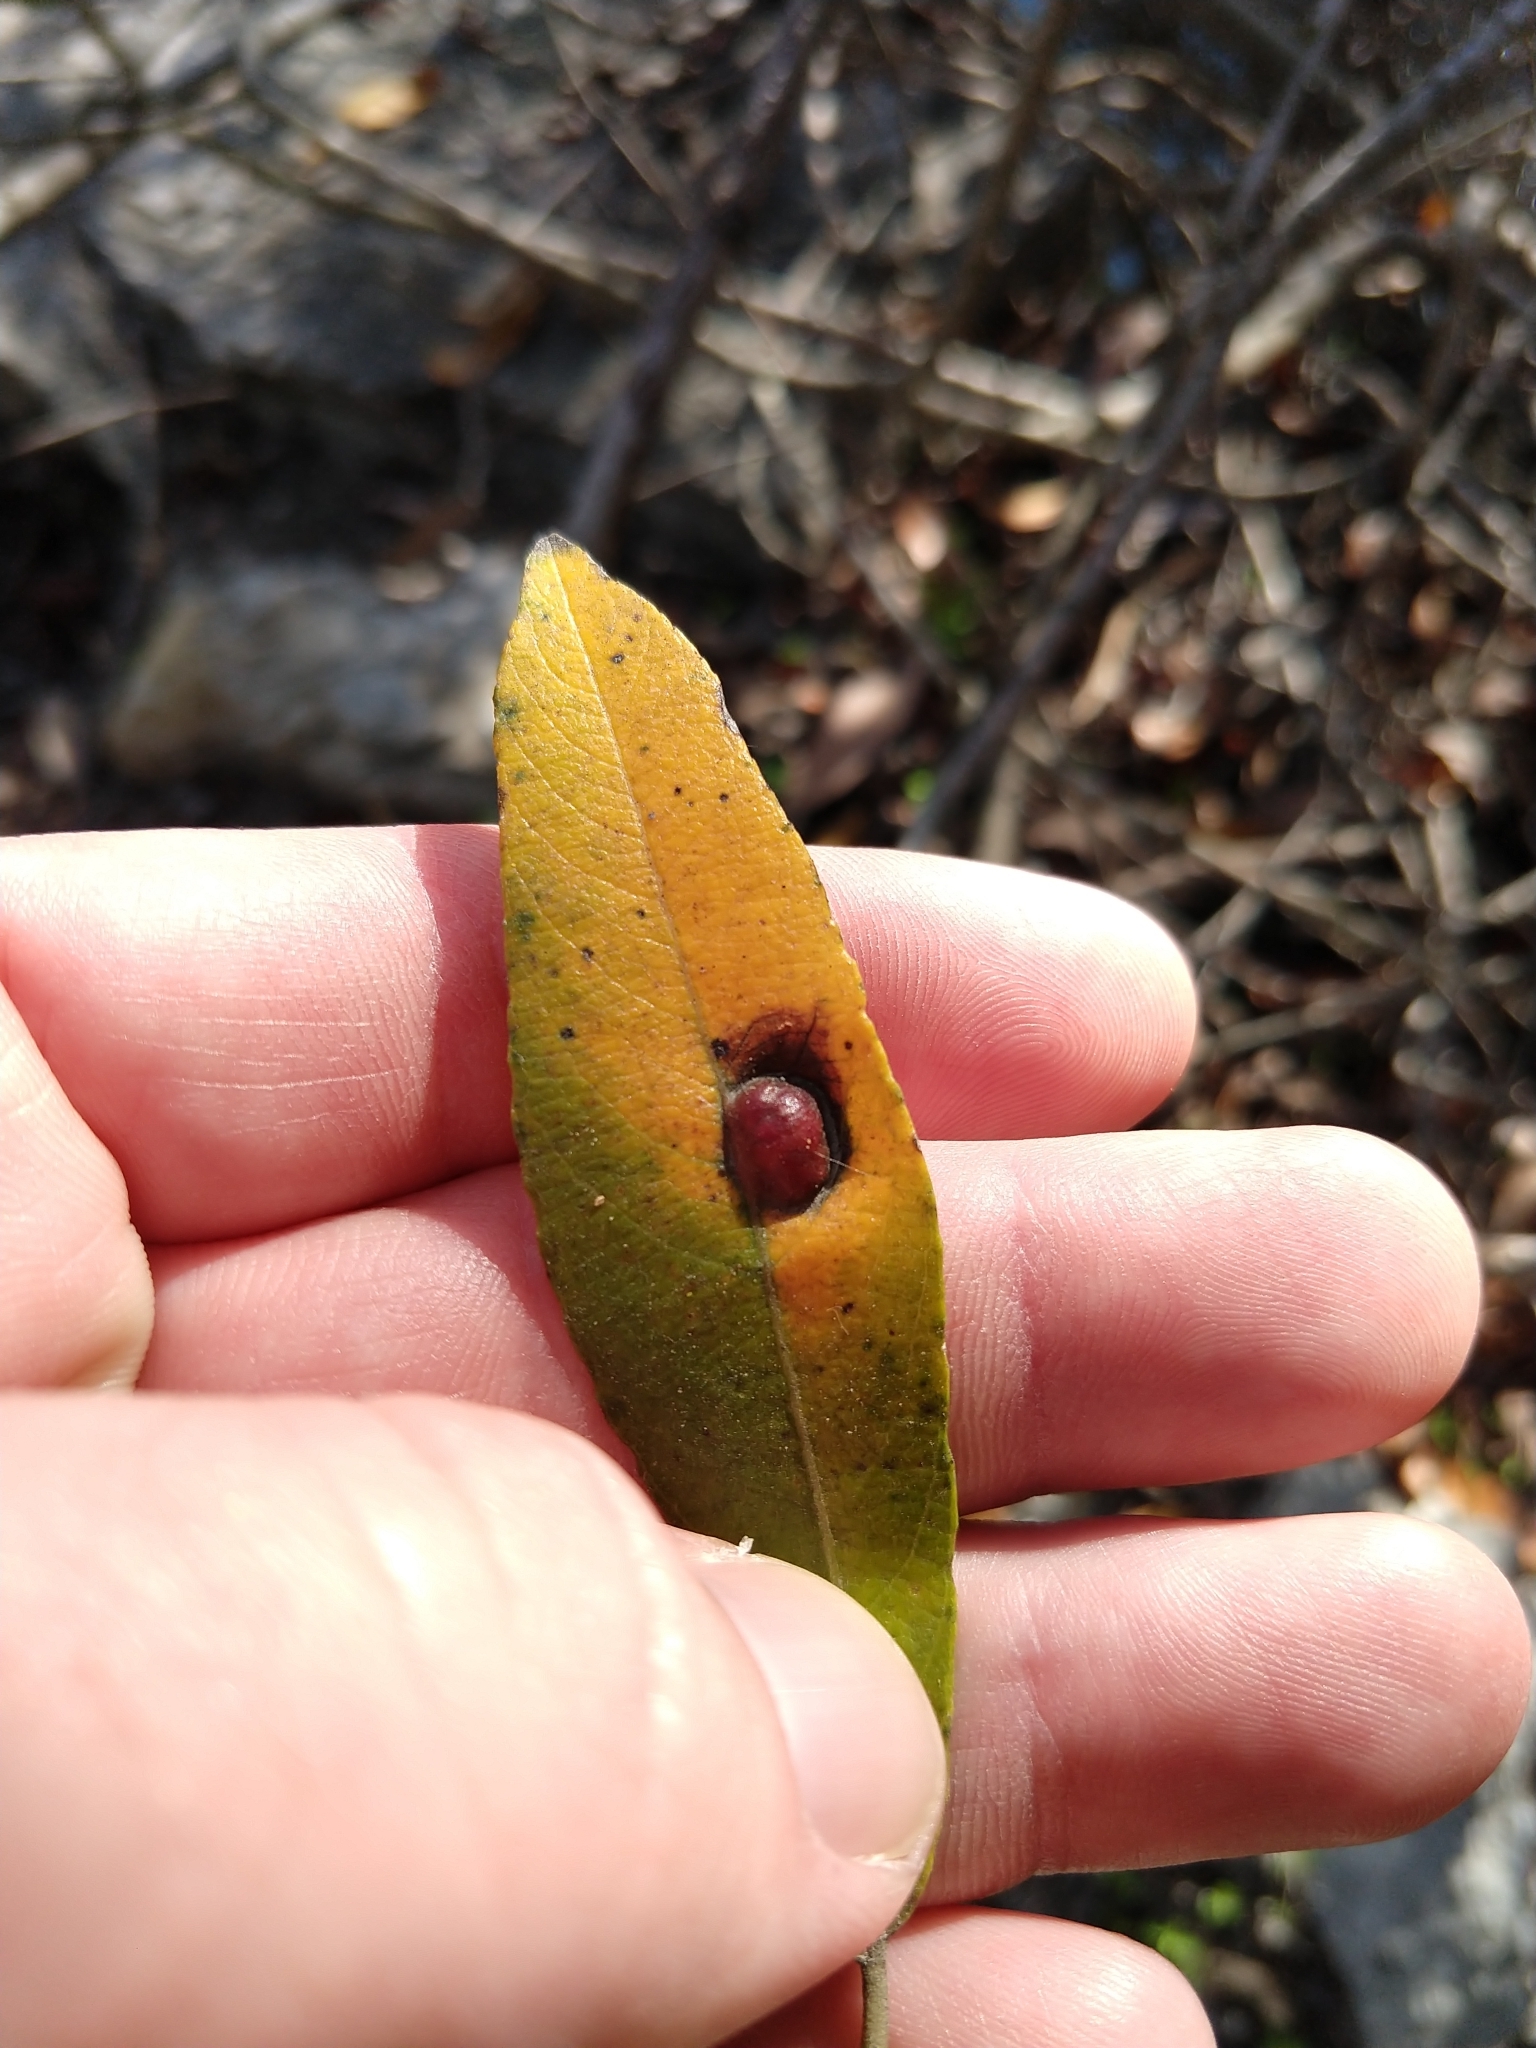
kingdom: Animalia
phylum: Arthropoda
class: Insecta
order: Hymenoptera
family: Tenthredinidae
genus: Euura
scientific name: Euura
